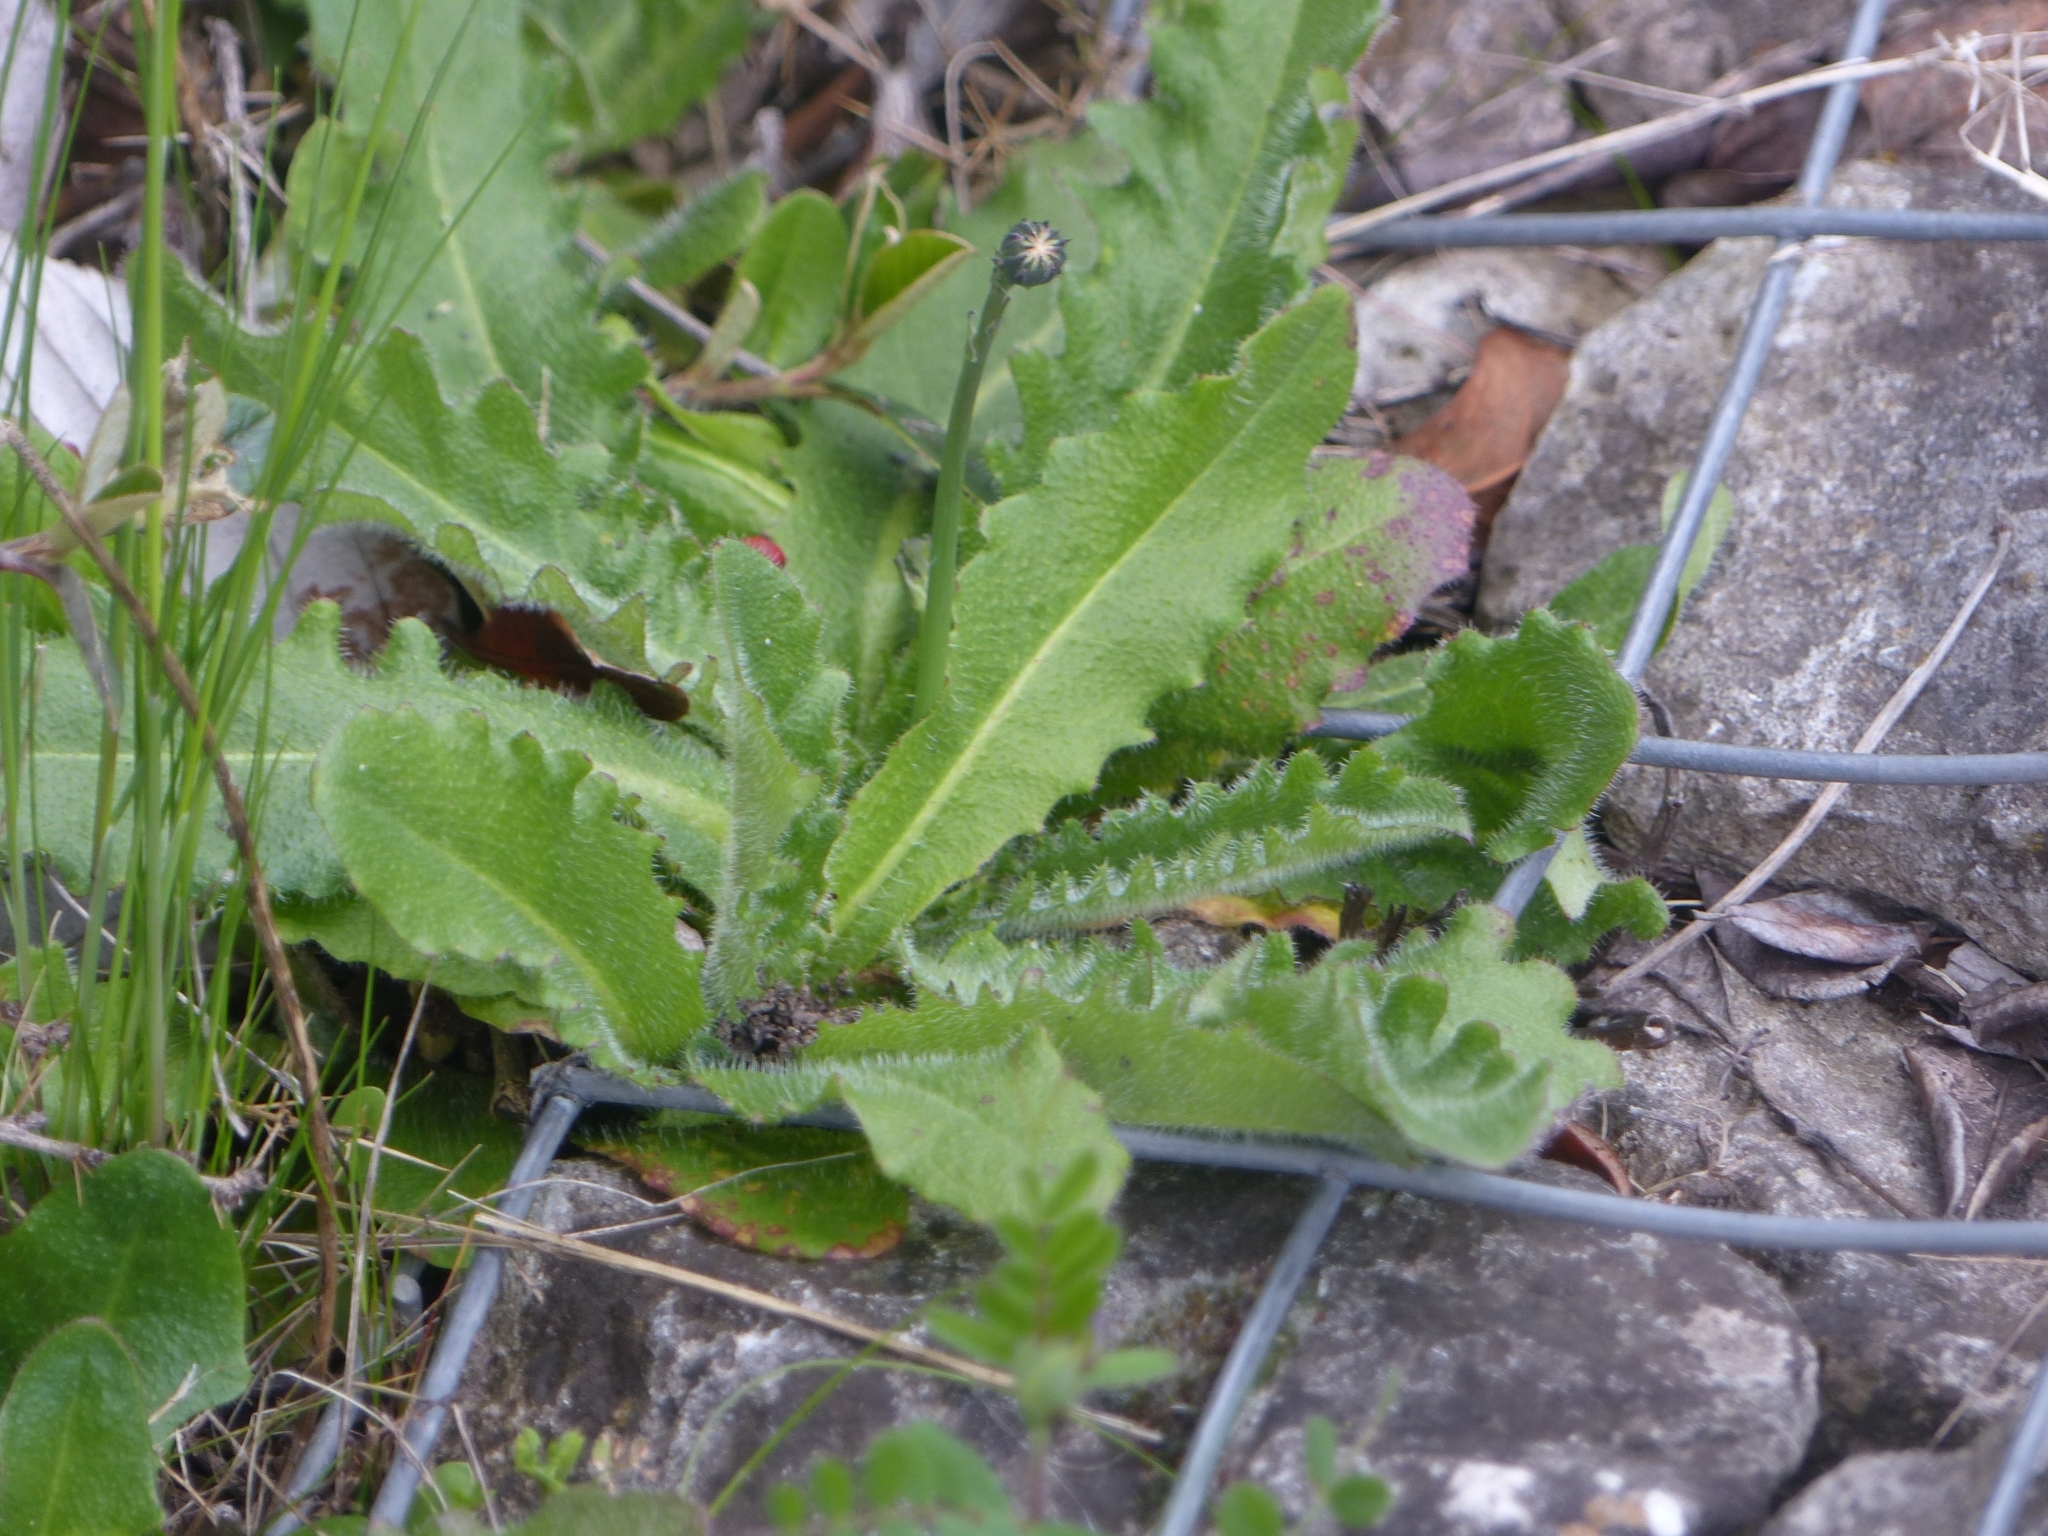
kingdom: Plantae
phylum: Tracheophyta
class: Magnoliopsida
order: Asterales
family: Asteraceae
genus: Hypochaeris
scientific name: Hypochaeris radicata
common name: Flatweed
